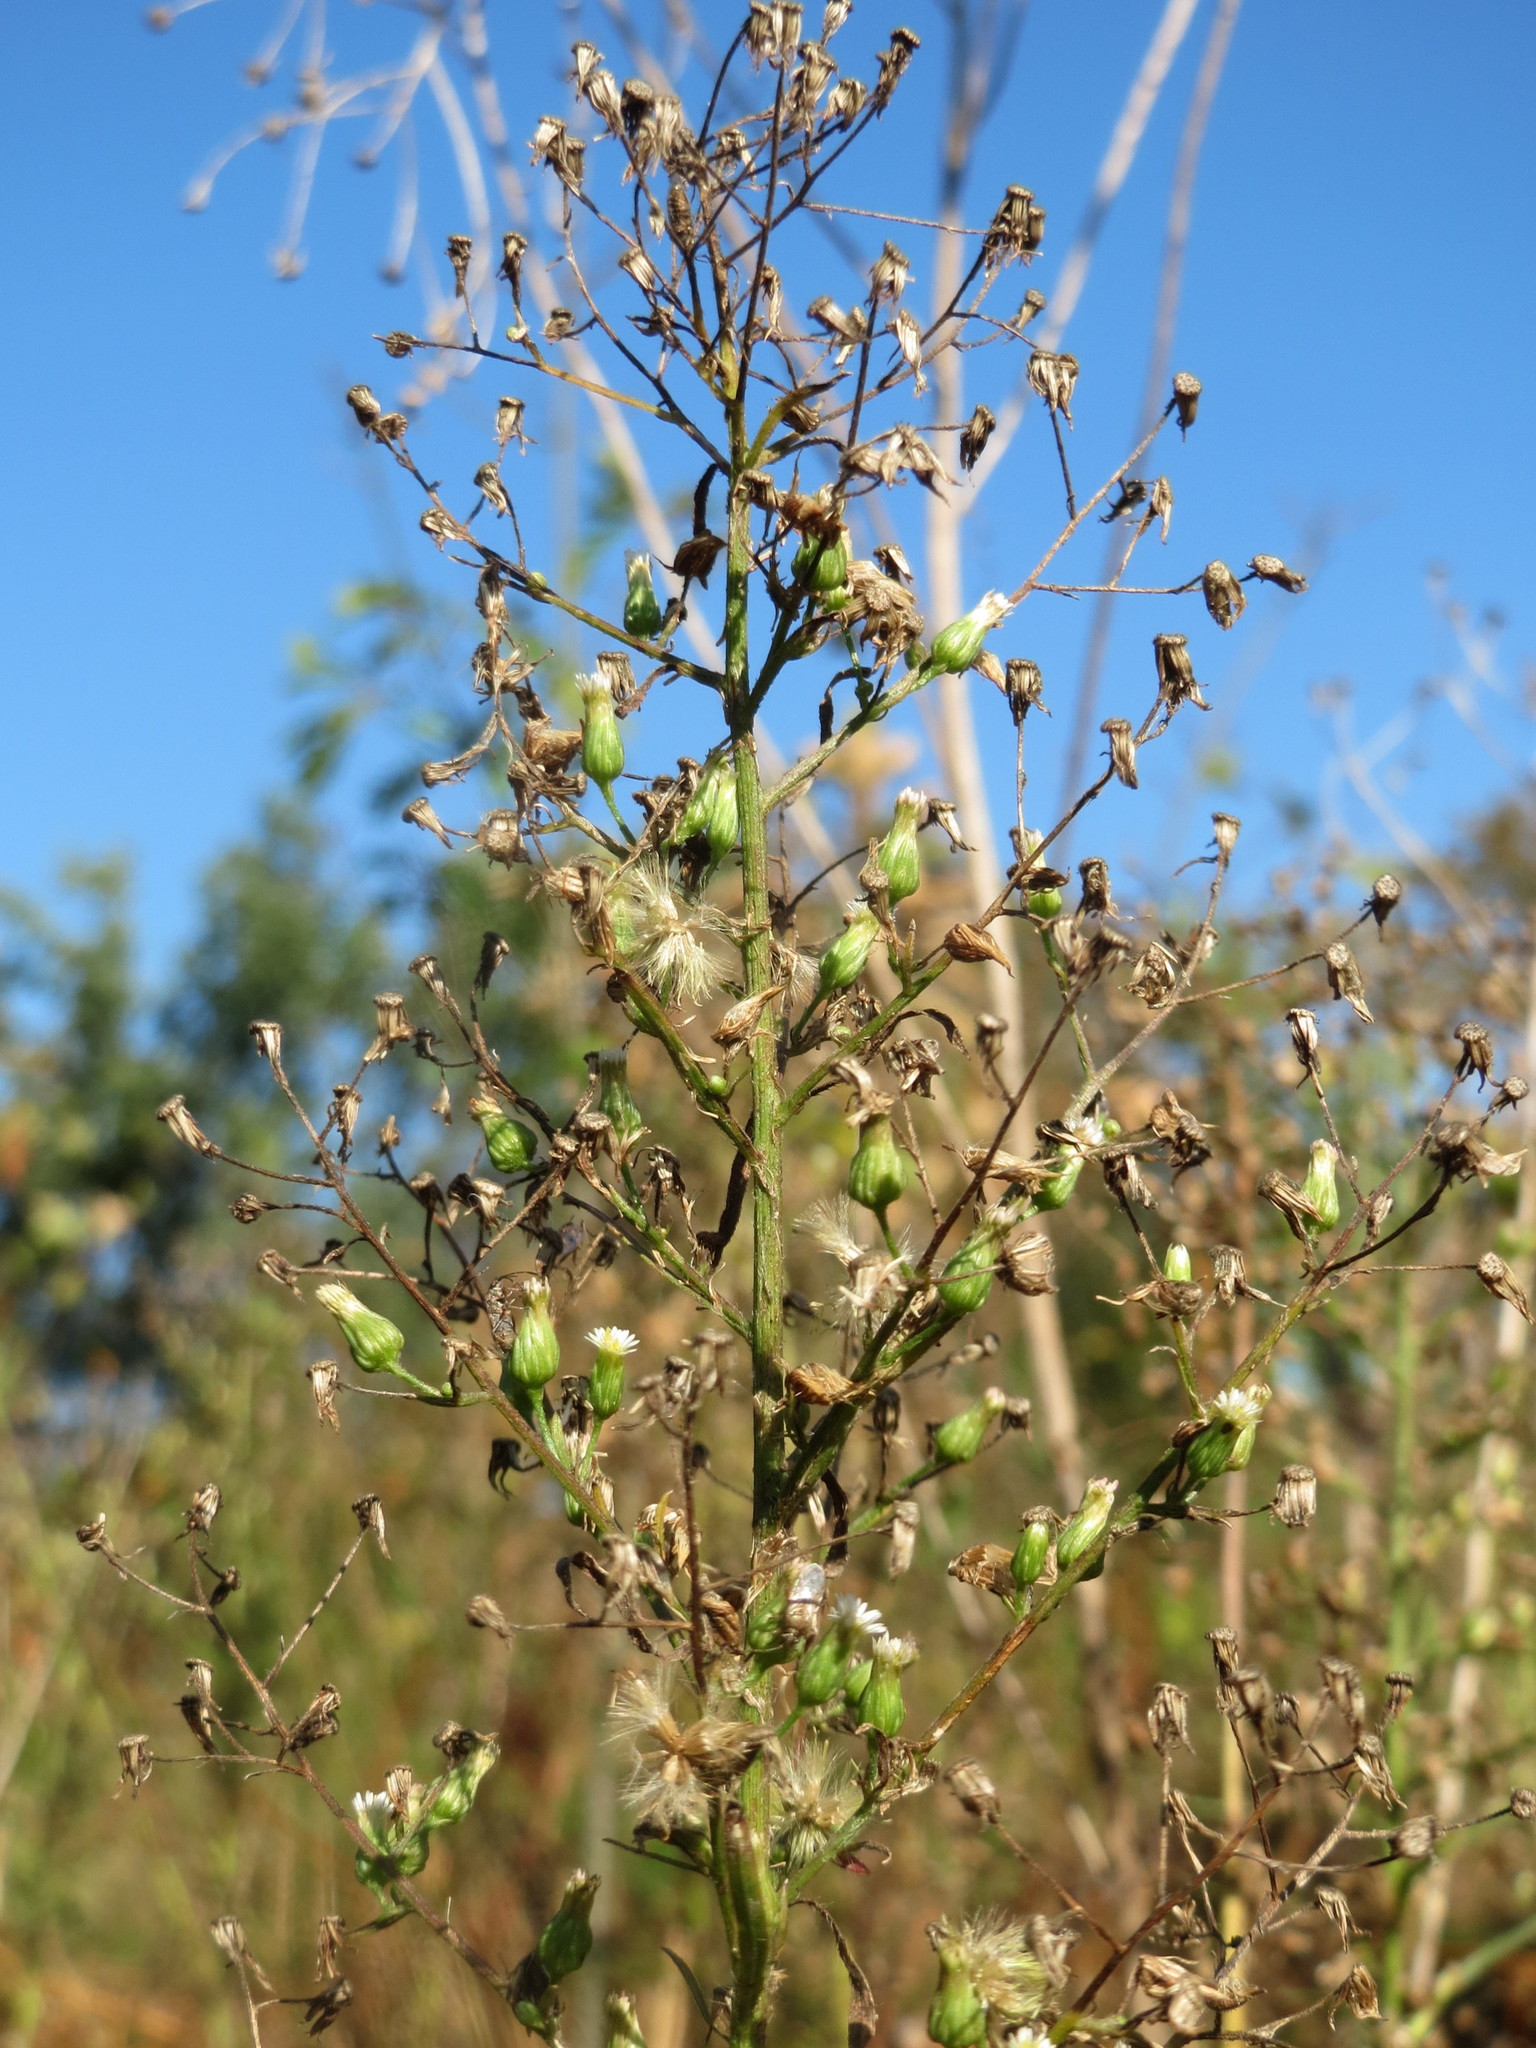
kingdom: Plantae
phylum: Tracheophyta
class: Magnoliopsida
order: Asterales
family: Asteraceae
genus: Erigeron
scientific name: Erigeron canadensis
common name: Canadian fleabane
